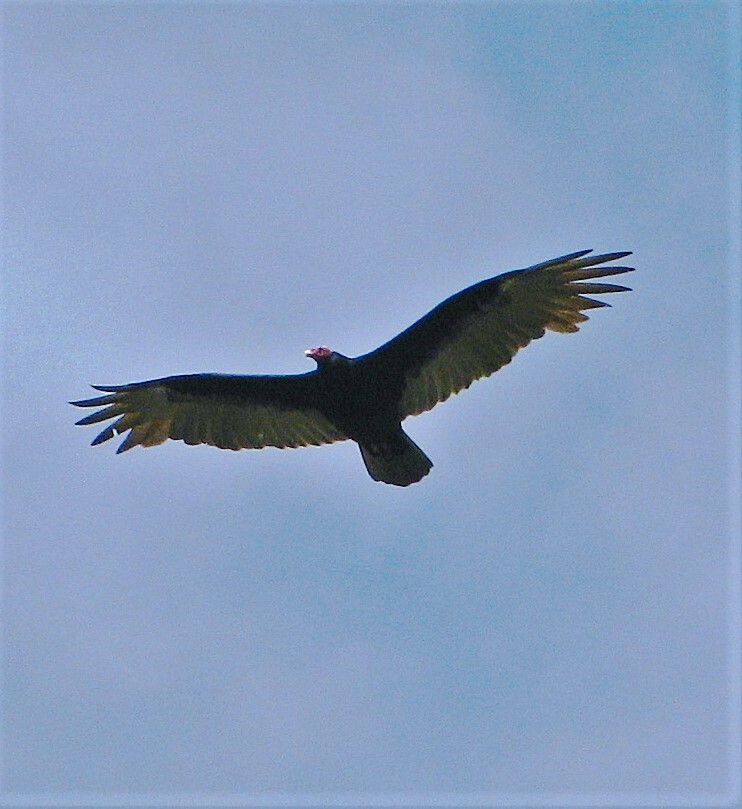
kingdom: Animalia
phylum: Chordata
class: Aves
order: Accipitriformes
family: Cathartidae
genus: Cathartes
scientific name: Cathartes aura
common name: Turkey vulture
